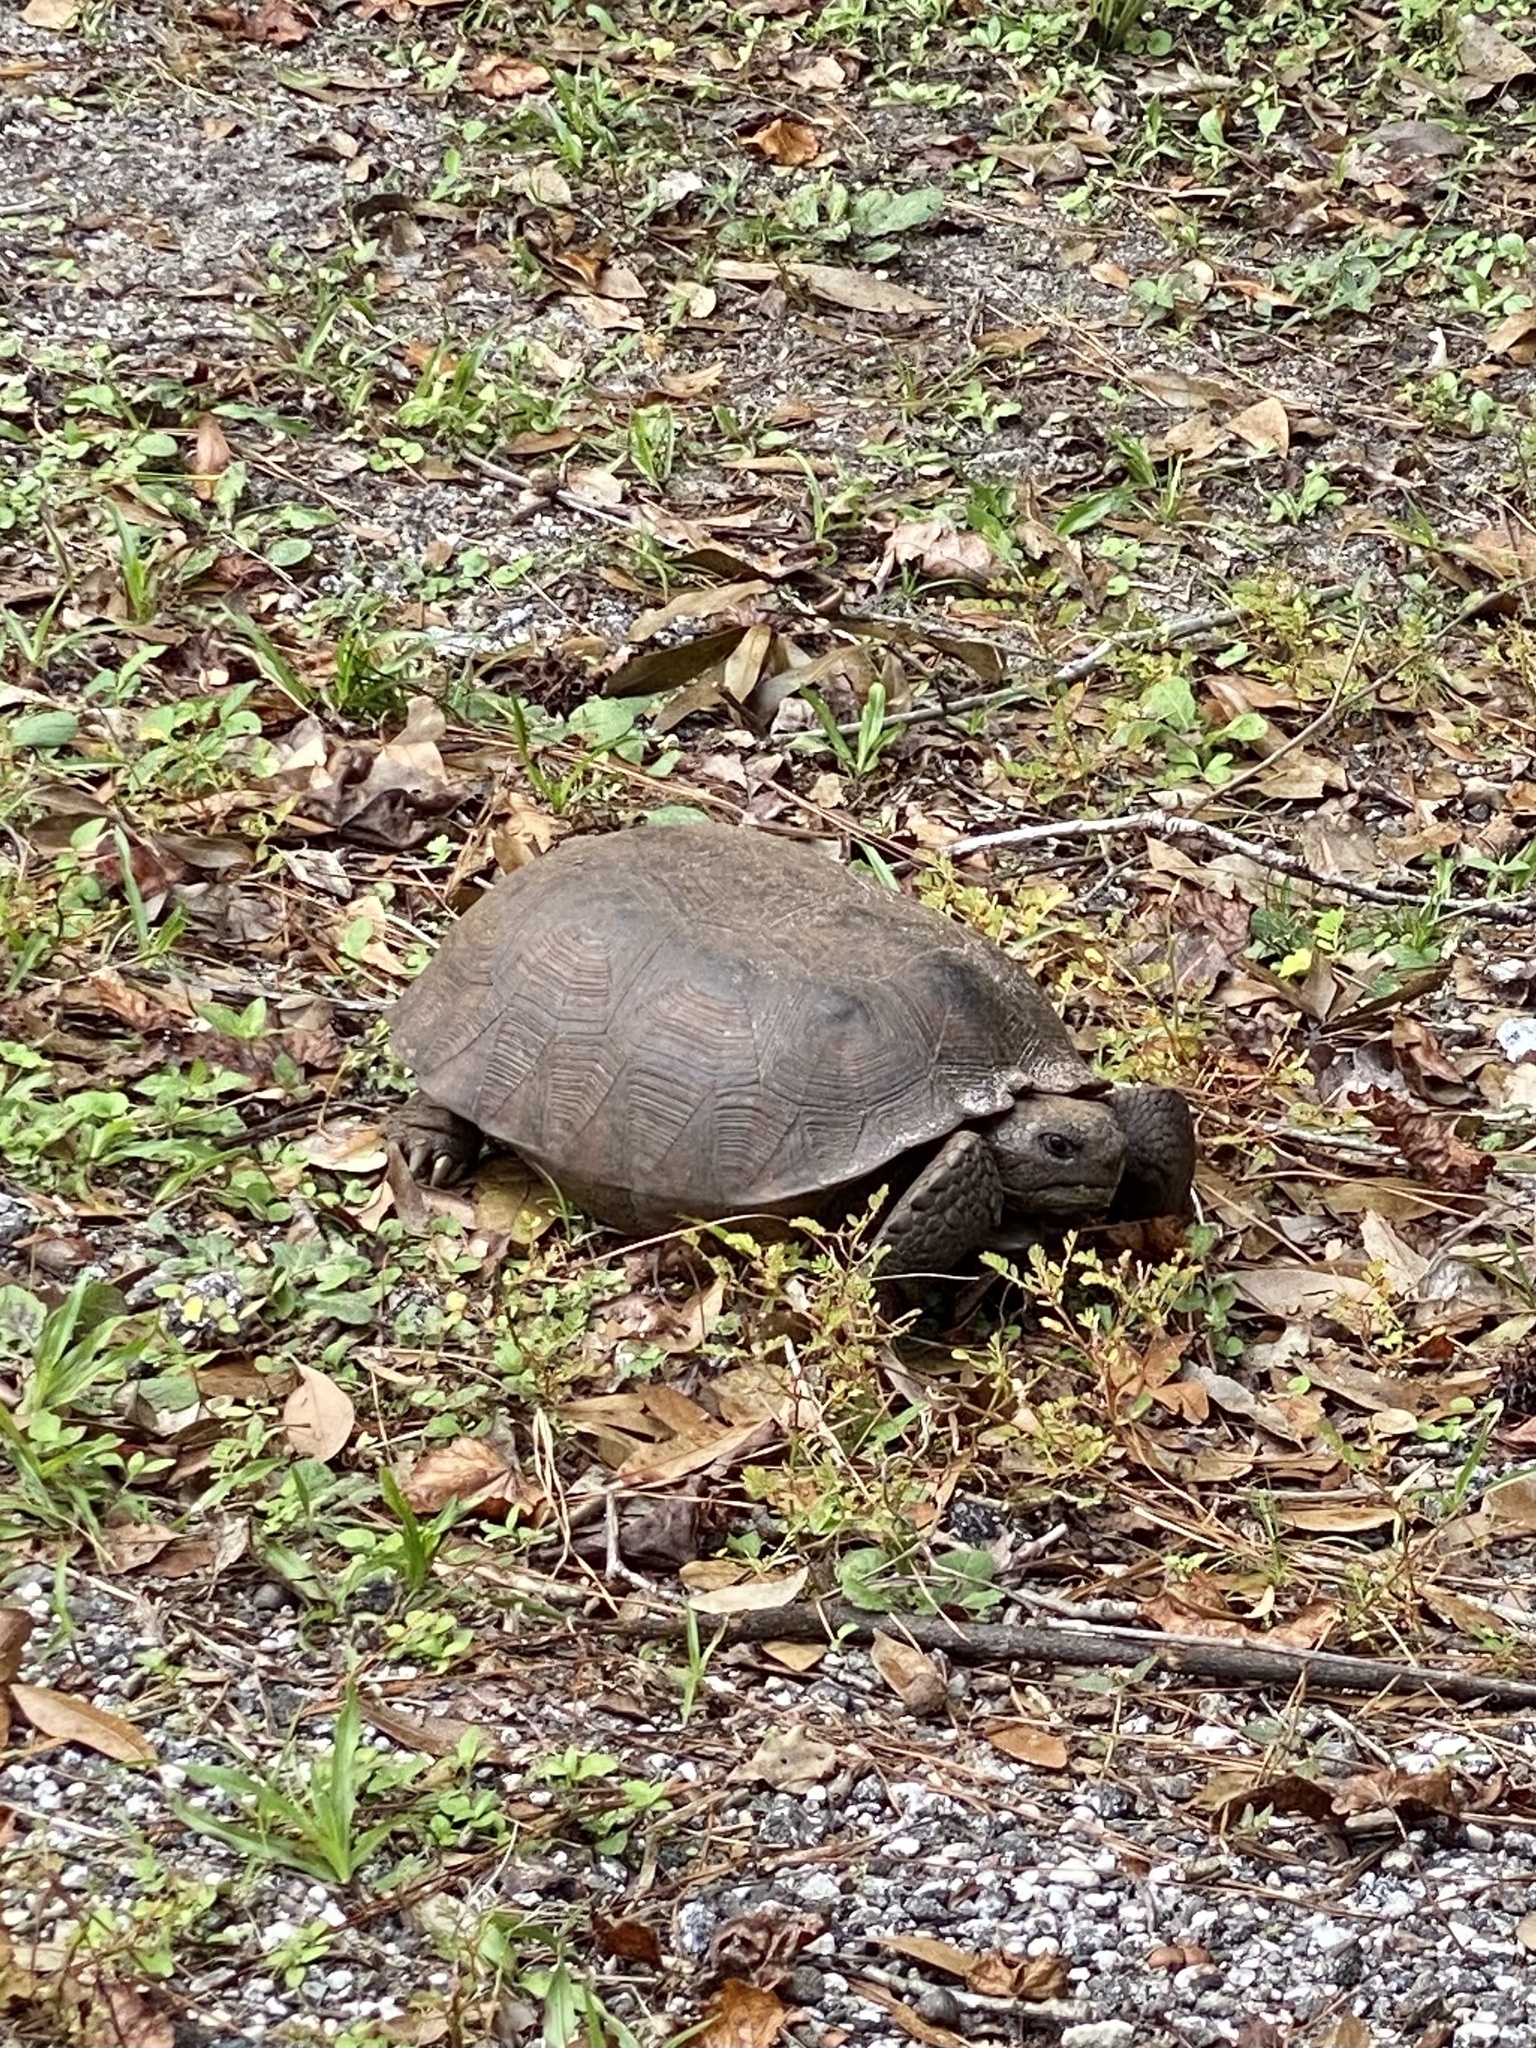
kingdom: Animalia
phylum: Chordata
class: Testudines
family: Testudinidae
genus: Gopherus
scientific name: Gopherus polyphemus
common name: Florida gopher tortoise
